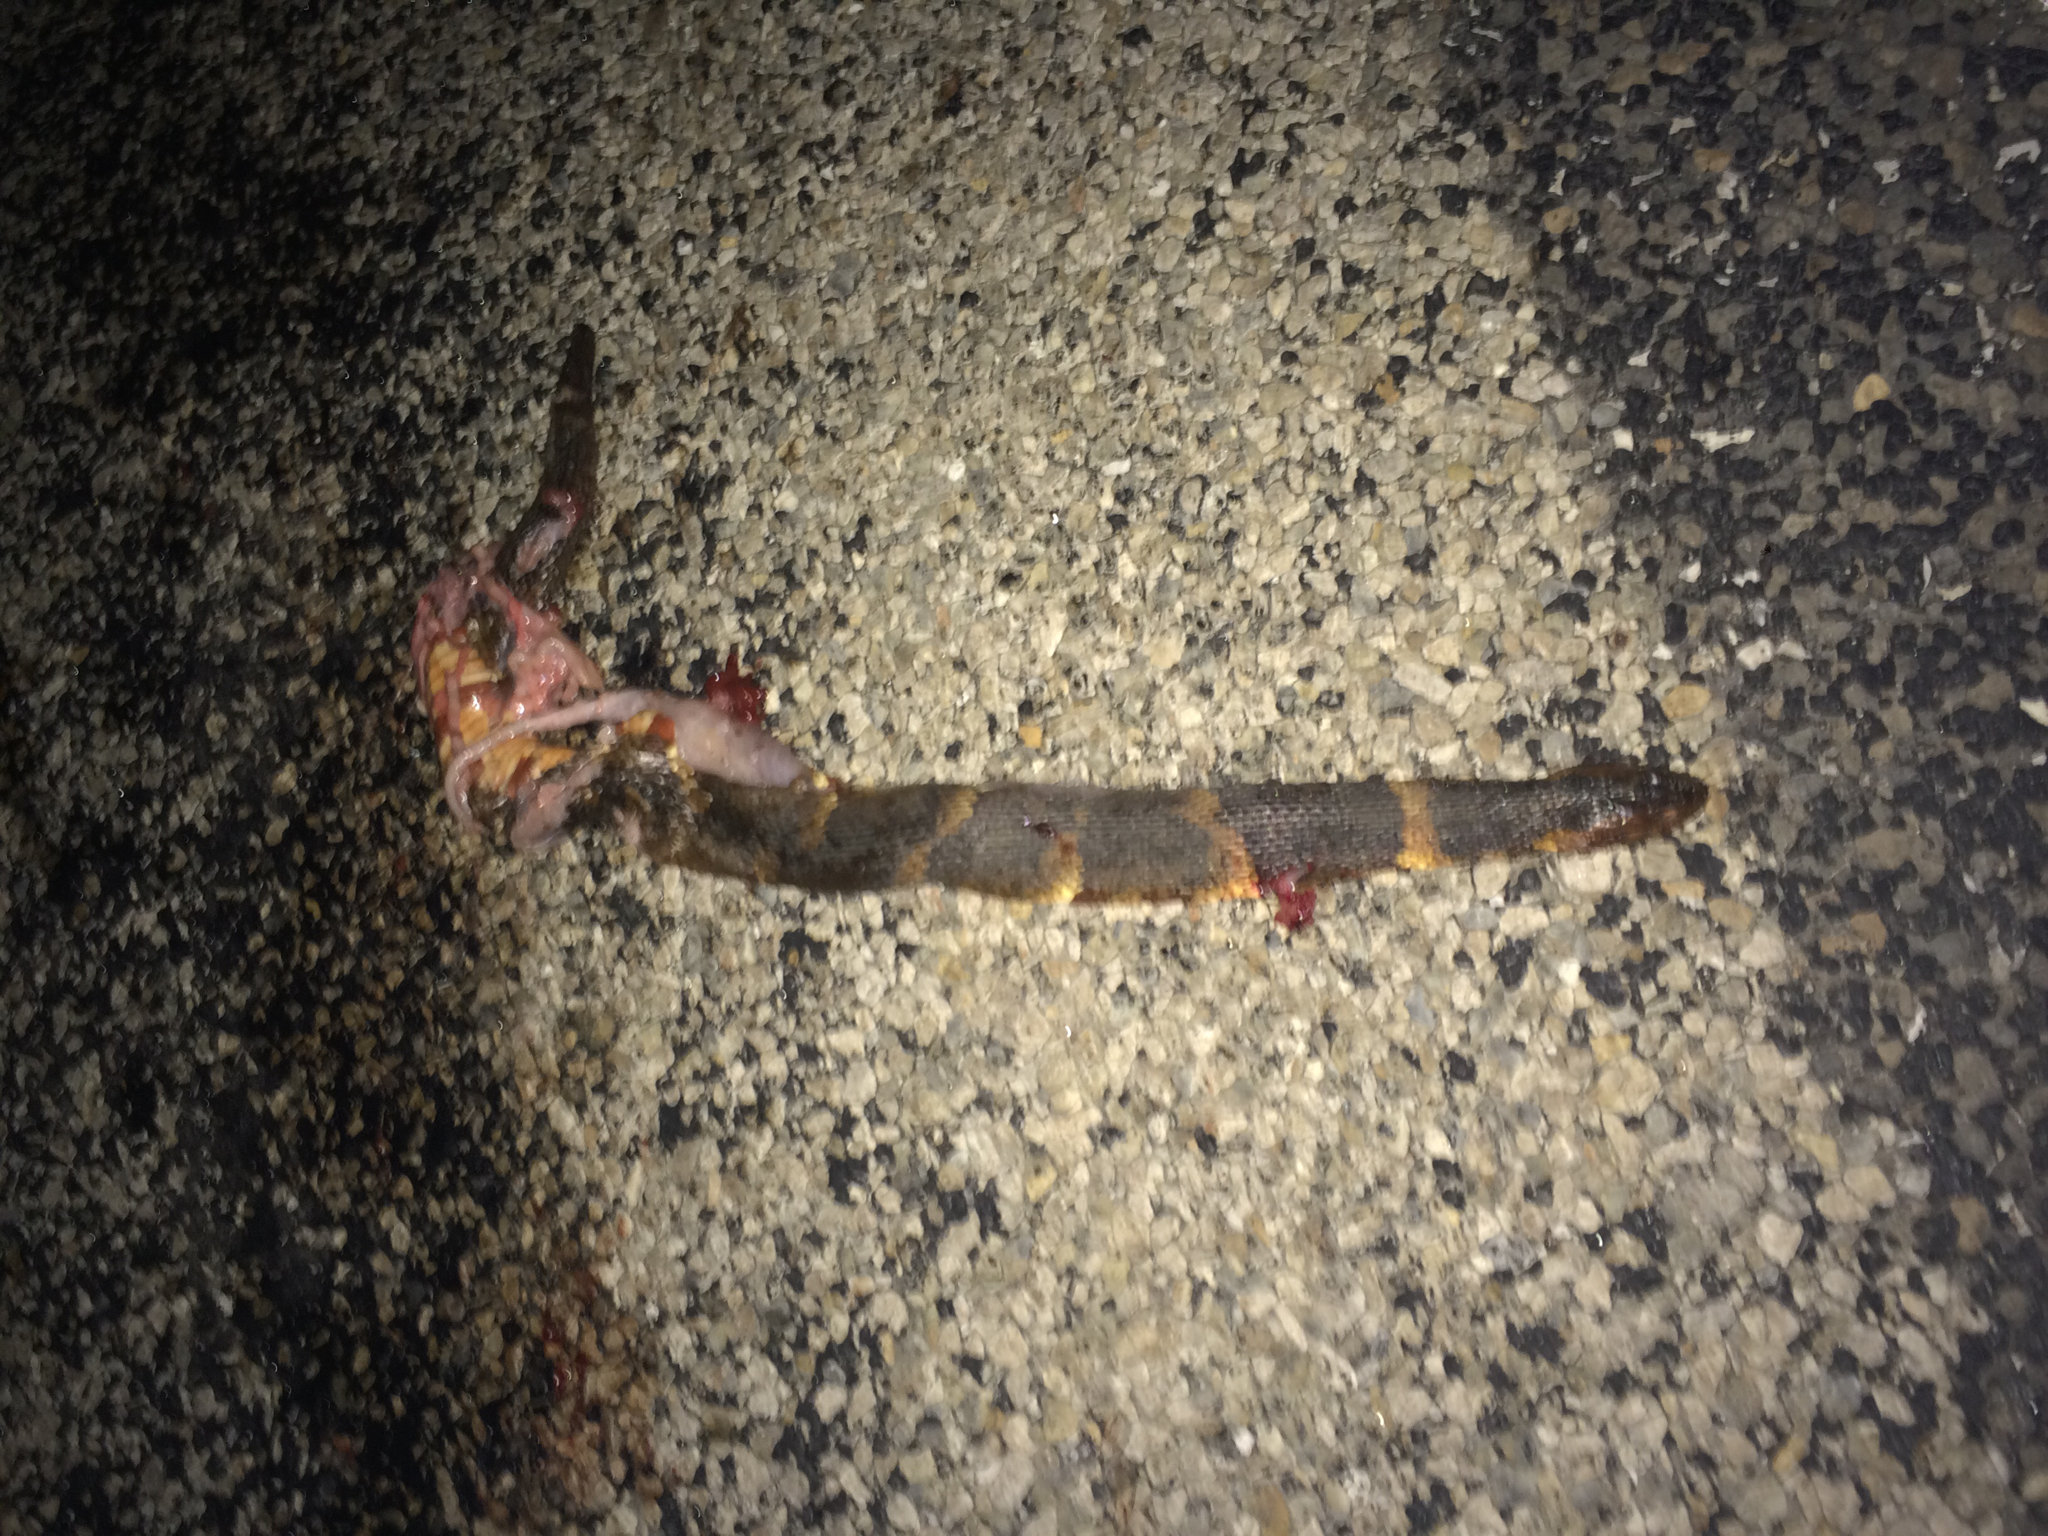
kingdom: Animalia
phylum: Chordata
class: Squamata
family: Colubridae
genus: Nerodia
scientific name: Nerodia fasciata
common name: Southern water snake
